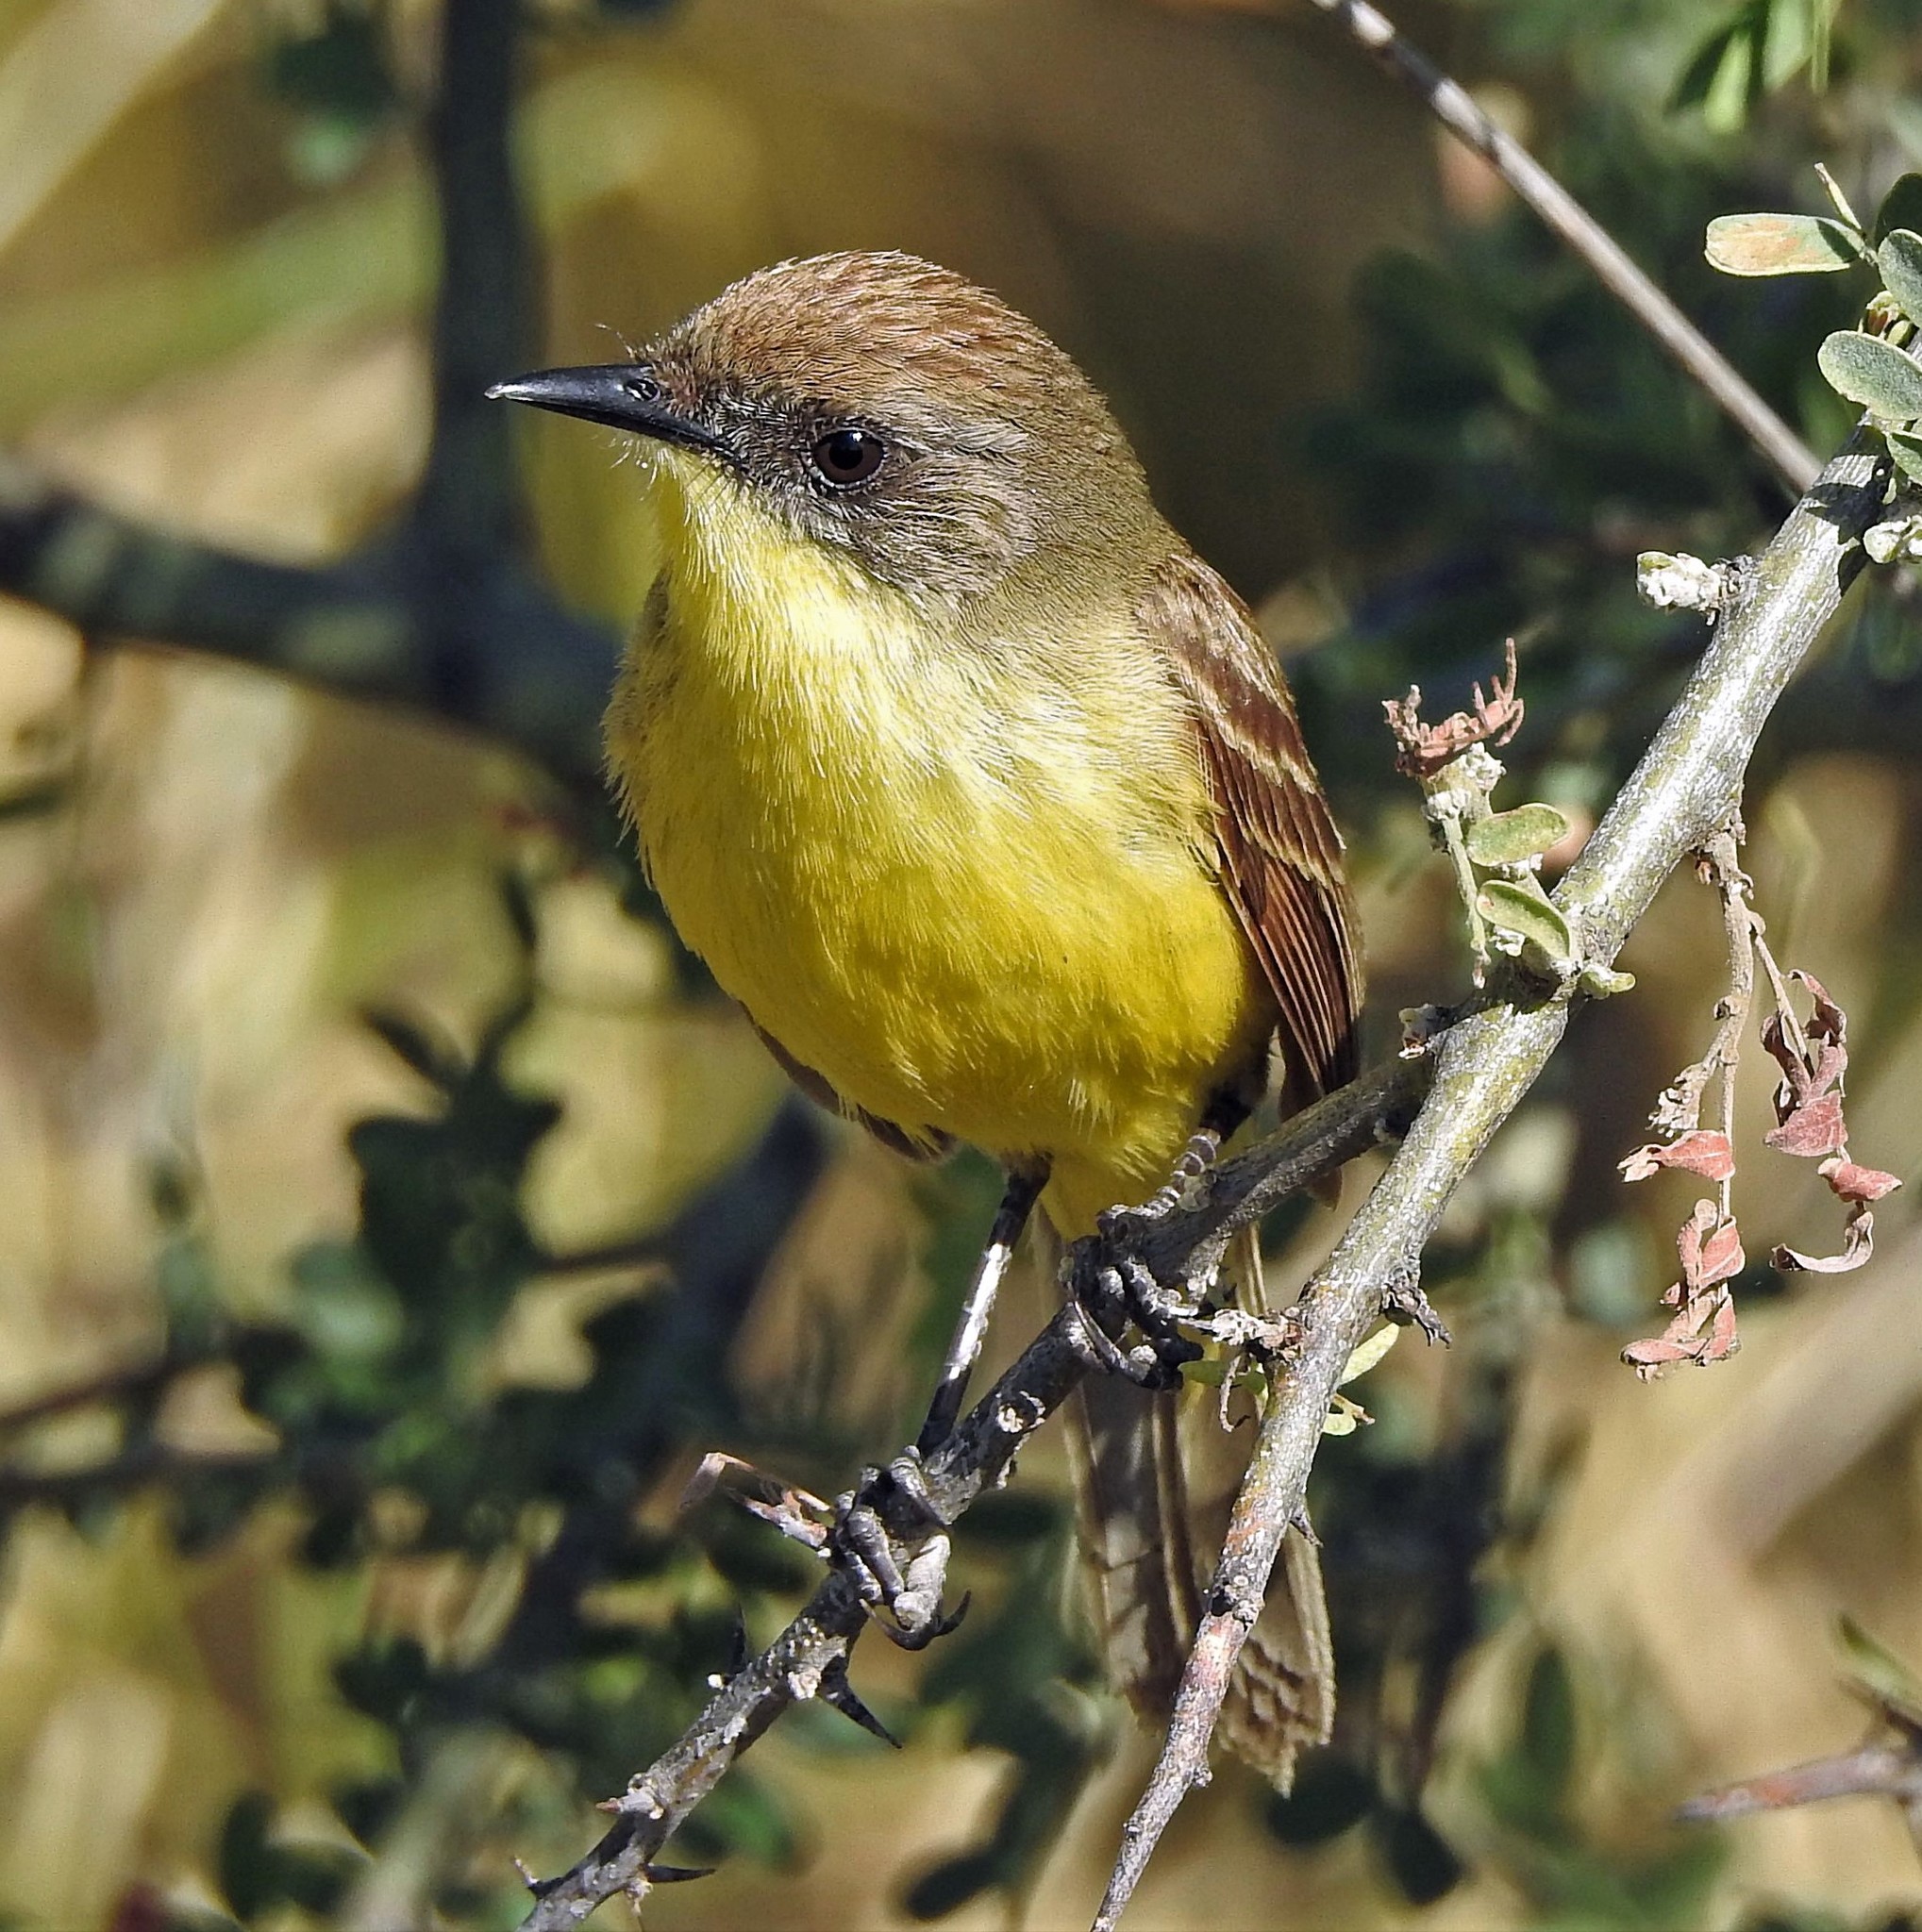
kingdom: Animalia
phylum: Chordata
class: Aves
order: Passeriformes
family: Tyrannidae
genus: Pseudocolopteryx
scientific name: Pseudocolopteryx citreola
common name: Ticking doradito
